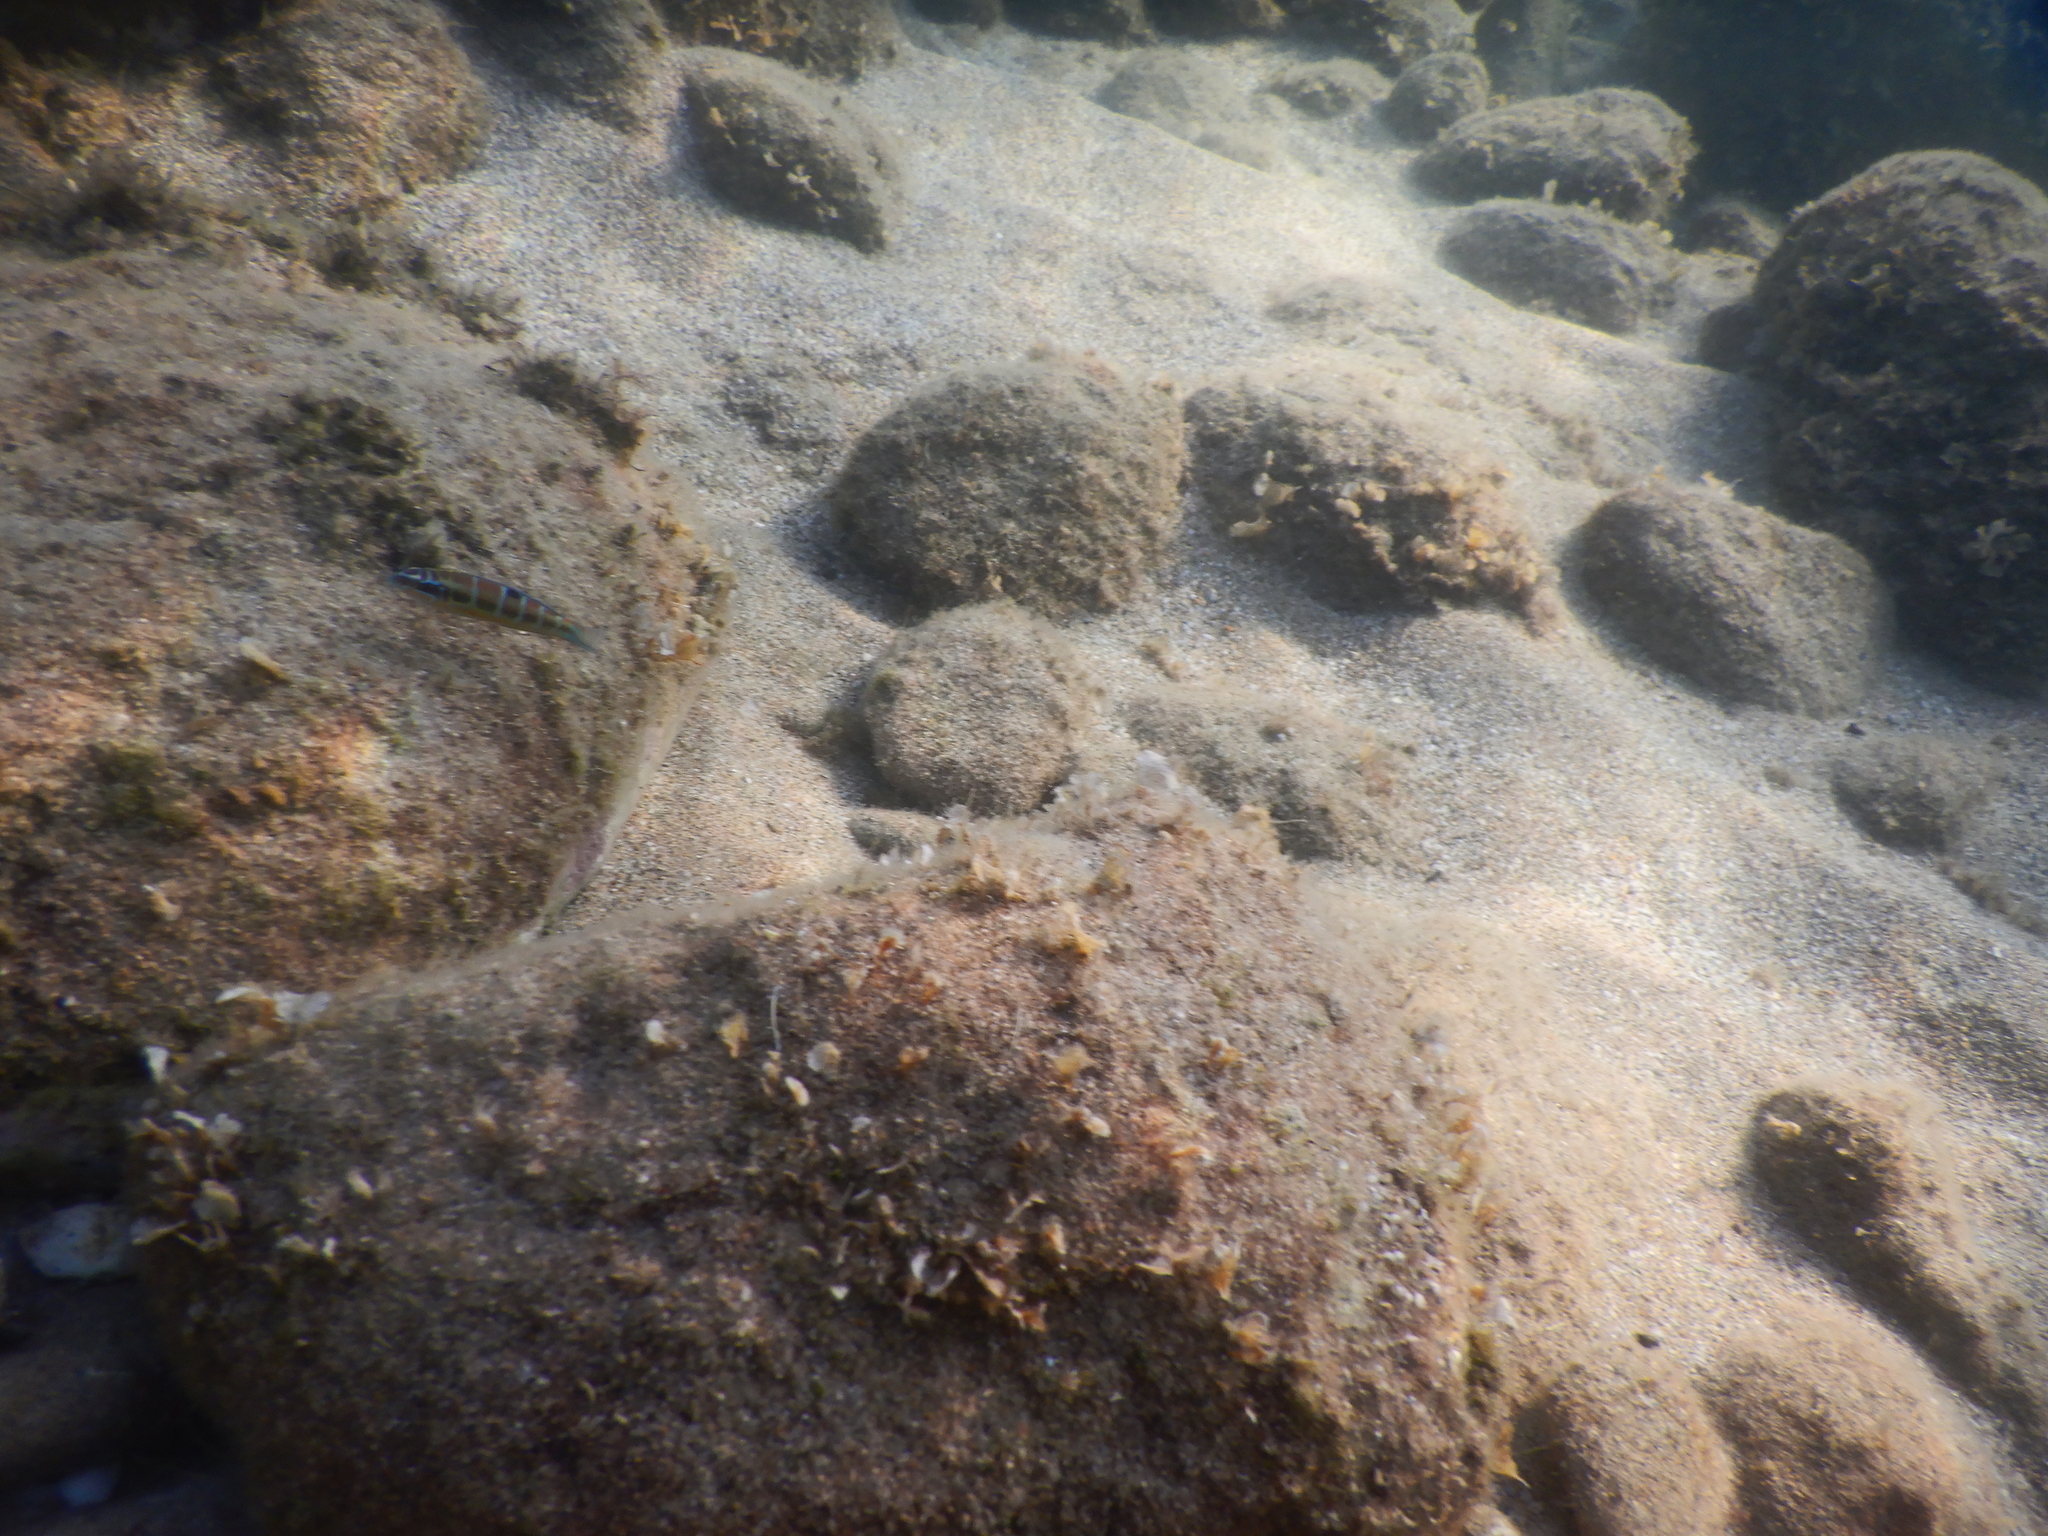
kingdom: Animalia
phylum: Chordata
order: Perciformes
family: Labridae
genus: Thalassoma
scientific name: Thalassoma pavo
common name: Ornate wrasse
